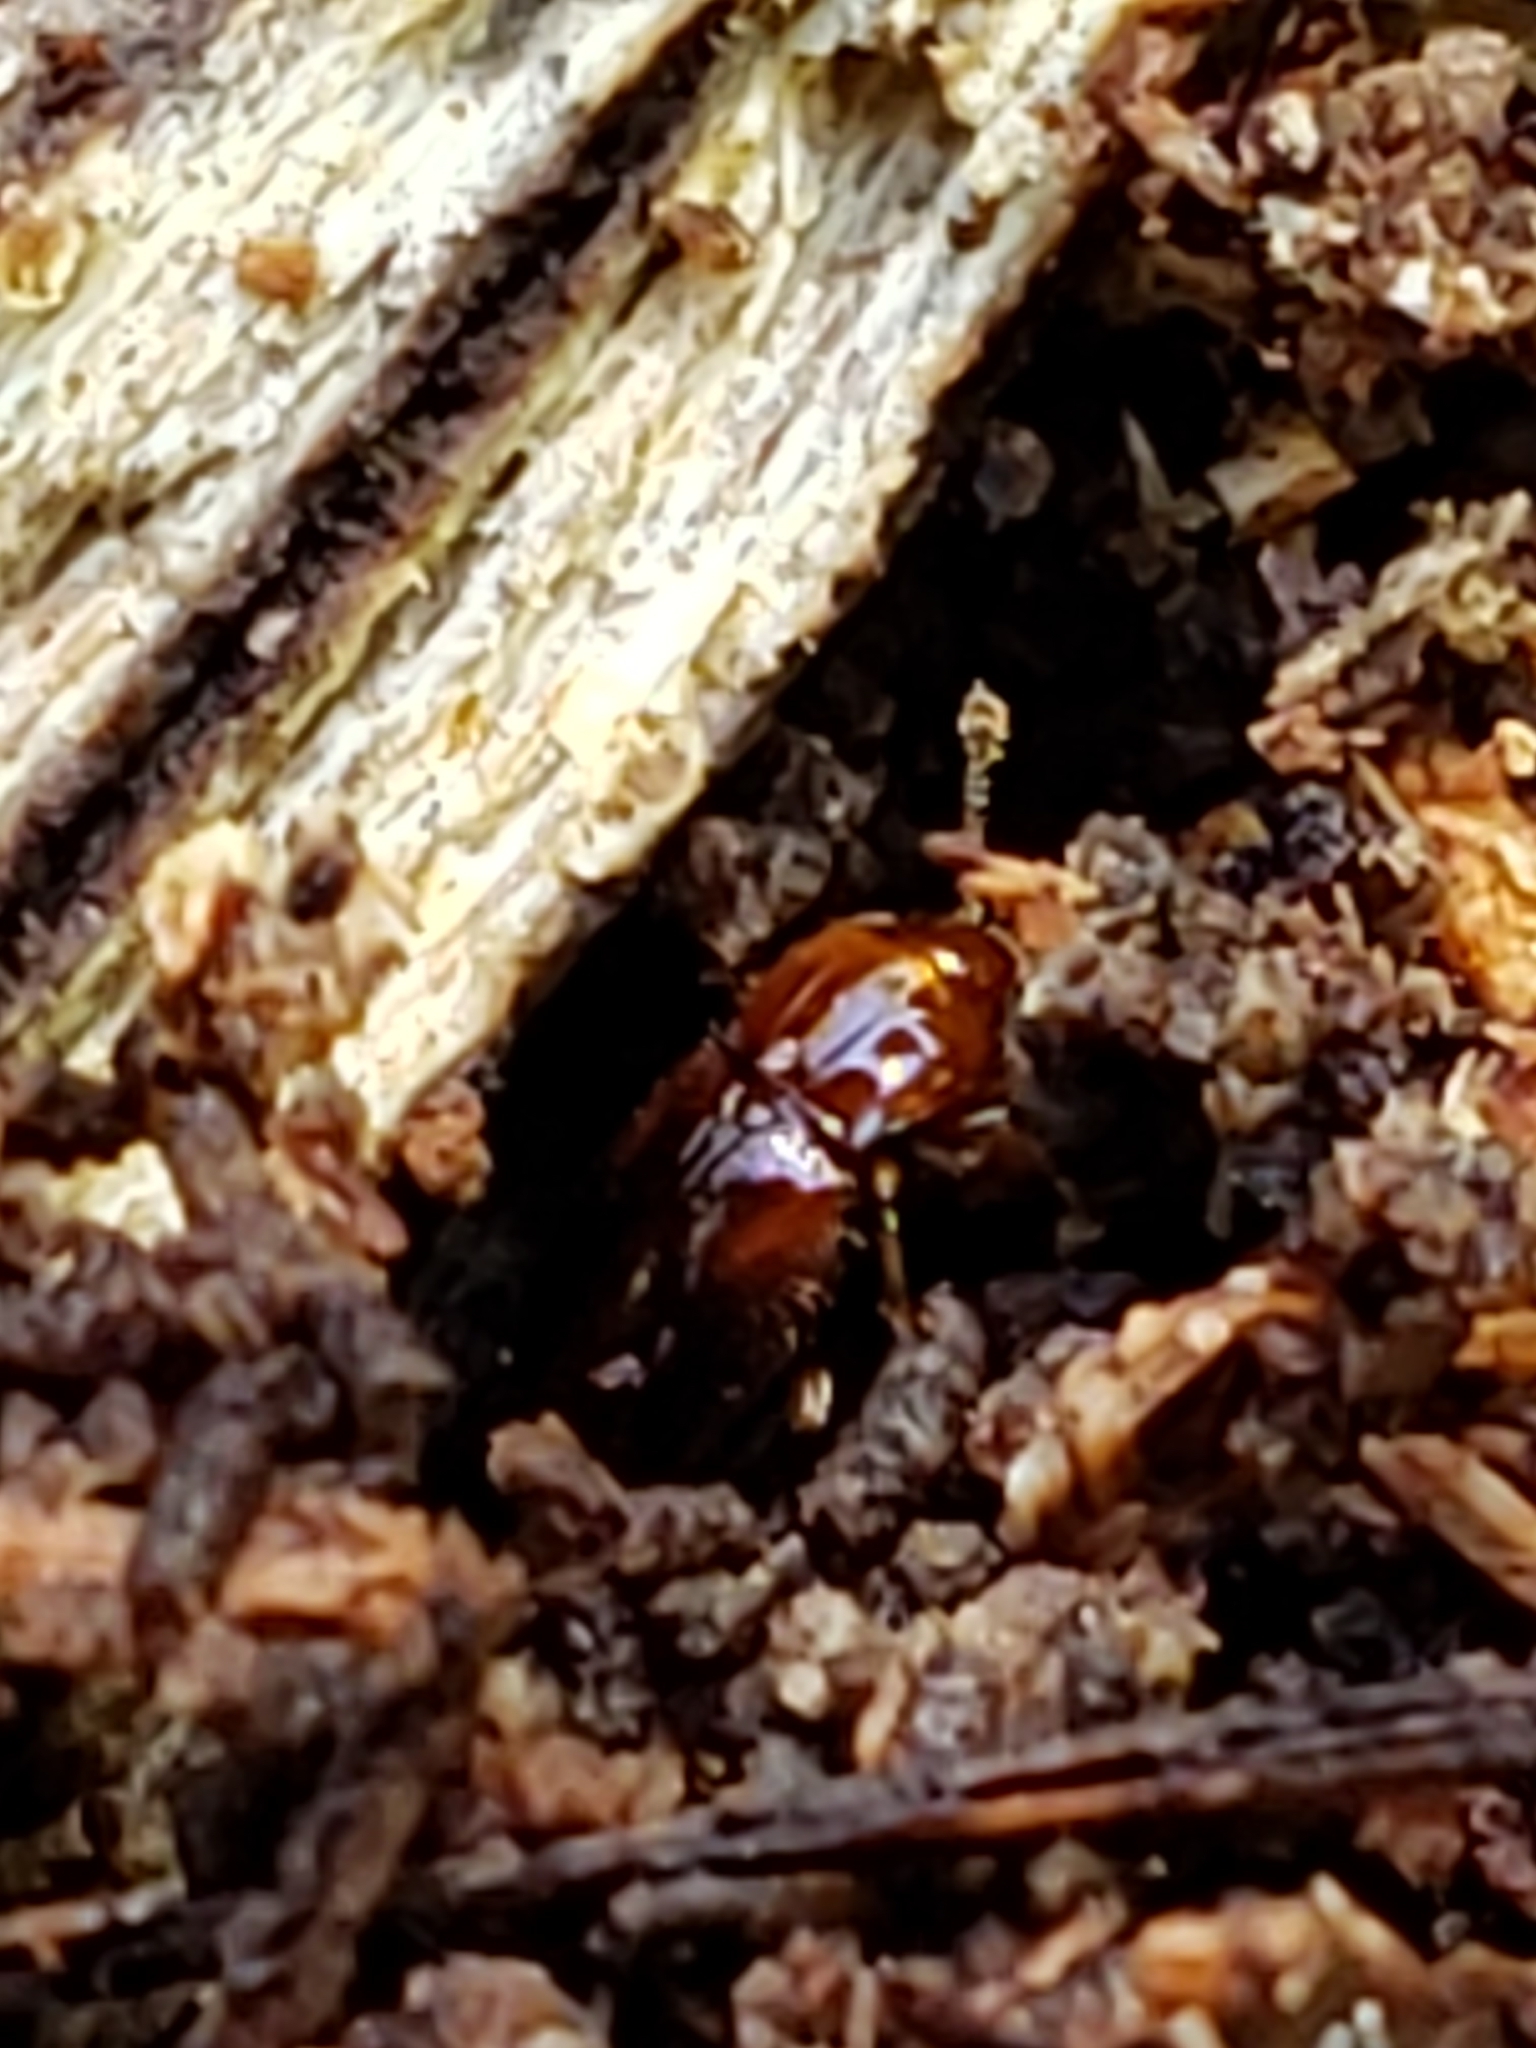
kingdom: Animalia
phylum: Arthropoda
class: Insecta
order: Coleoptera
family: Endomychidae
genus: Rhanidea
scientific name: Rhanidea unicolor
